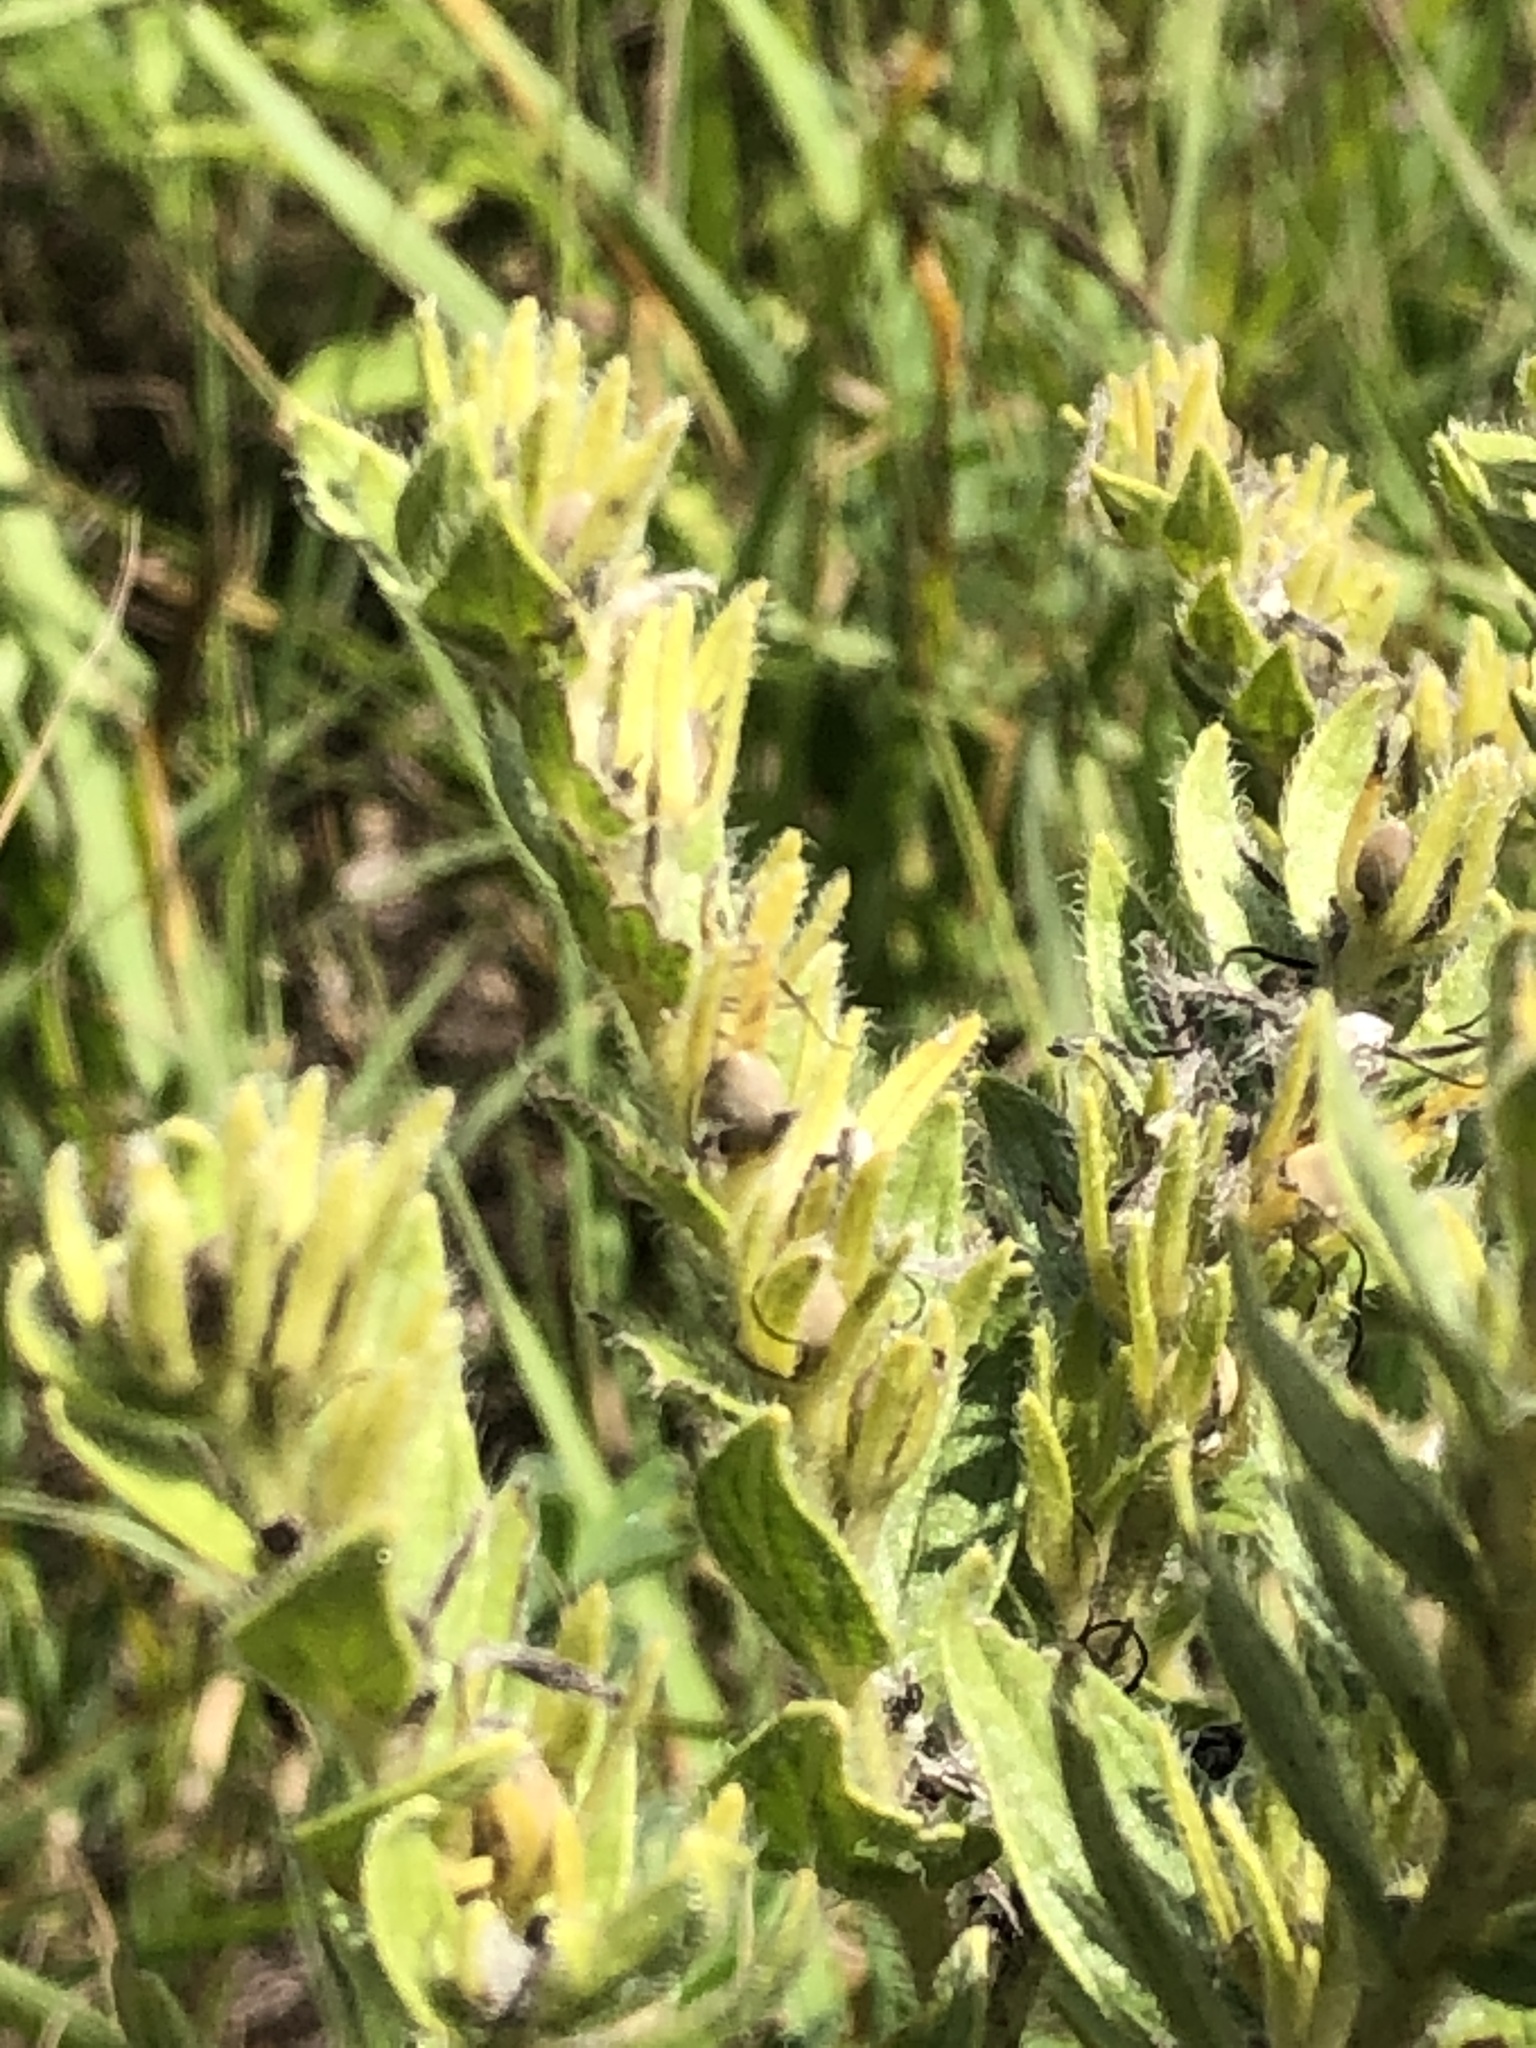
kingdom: Plantae
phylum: Tracheophyta
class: Magnoliopsida
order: Boraginales
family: Boraginaceae
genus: Lithospermum
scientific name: Lithospermum occidentale
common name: Western false gromwell
